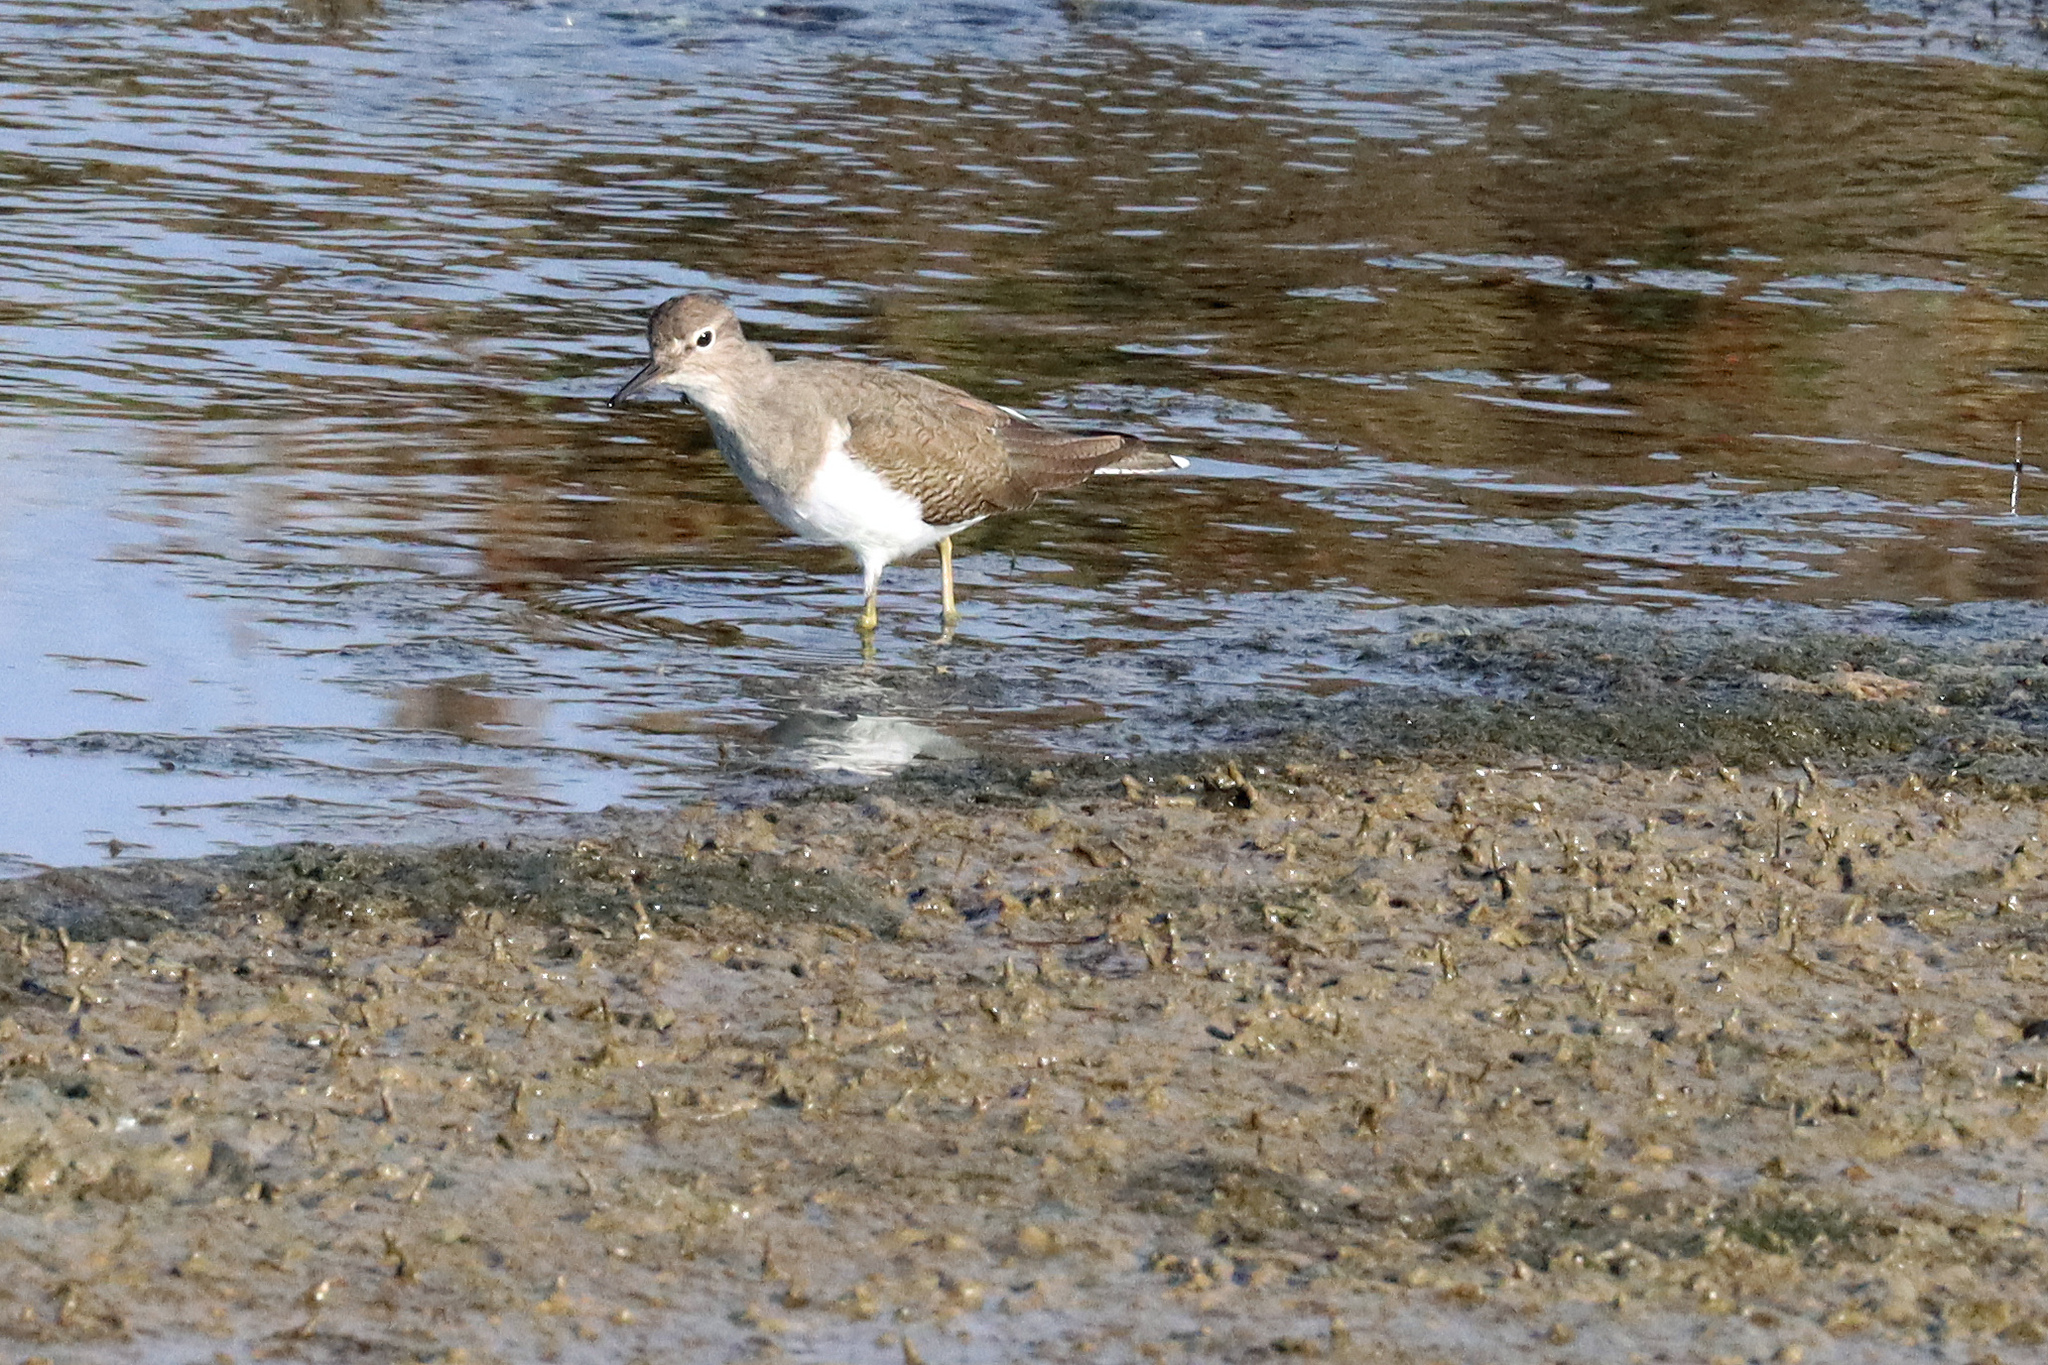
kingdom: Animalia
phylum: Chordata
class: Aves
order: Charadriiformes
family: Scolopacidae
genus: Actitis
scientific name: Actitis hypoleucos
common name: Common sandpiper
